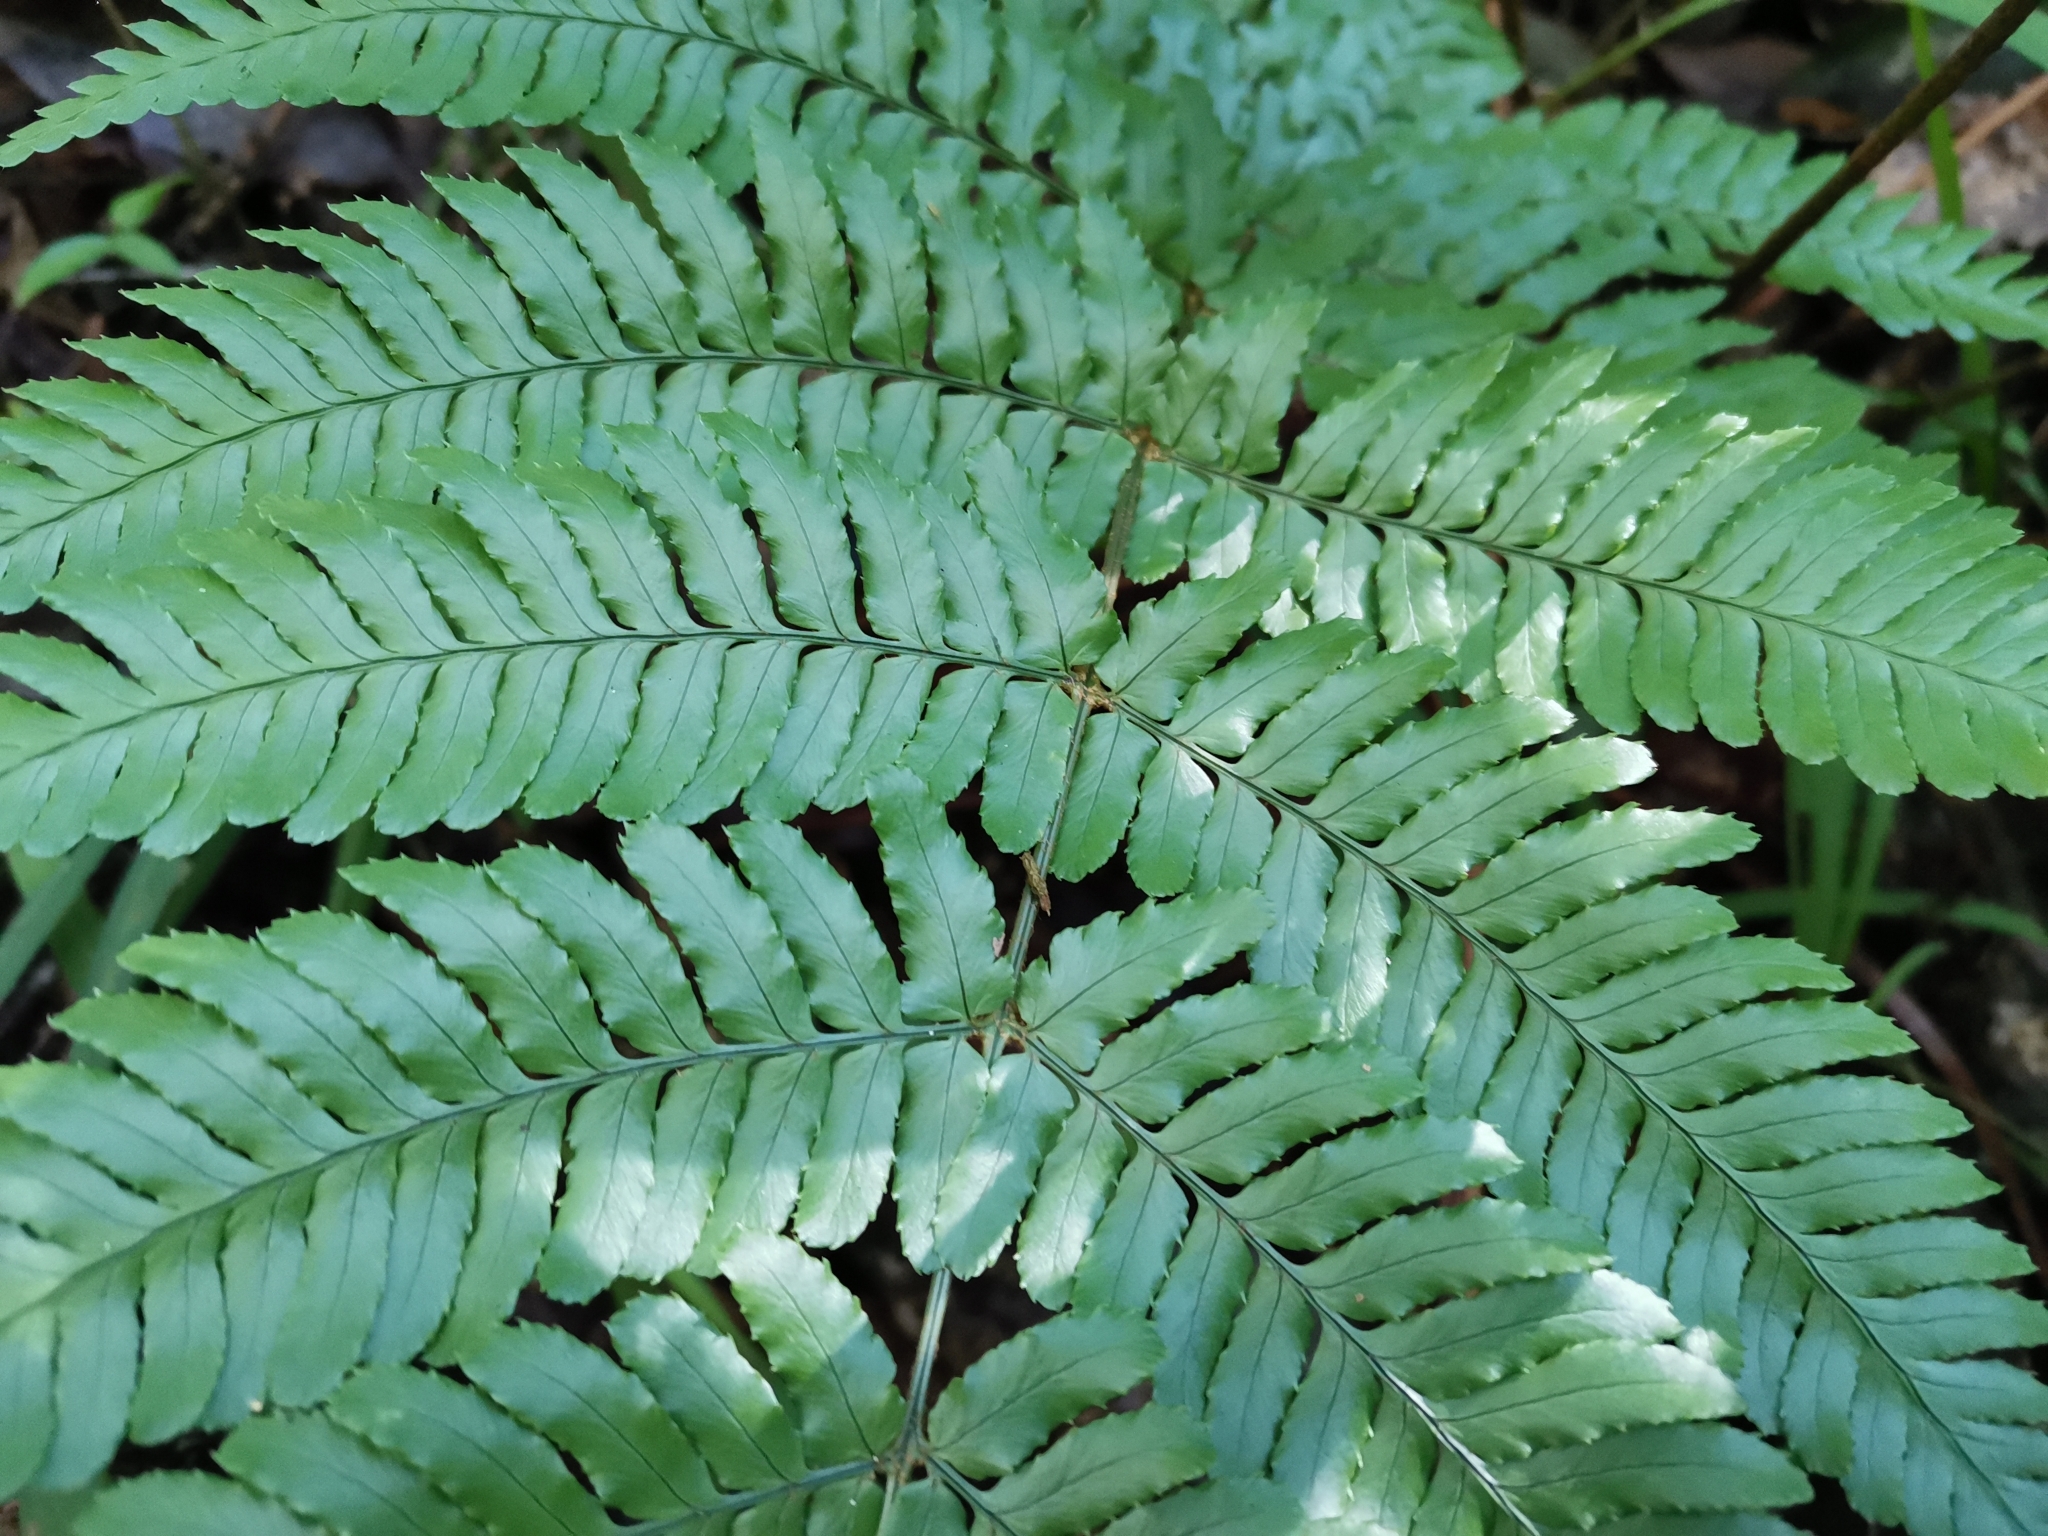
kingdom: Plantae
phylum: Tracheophyta
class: Polypodiopsida
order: Polypodiales
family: Dryopteridaceae
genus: Dryopteris
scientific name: Dryopteris erythrosora
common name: Autumn fern
